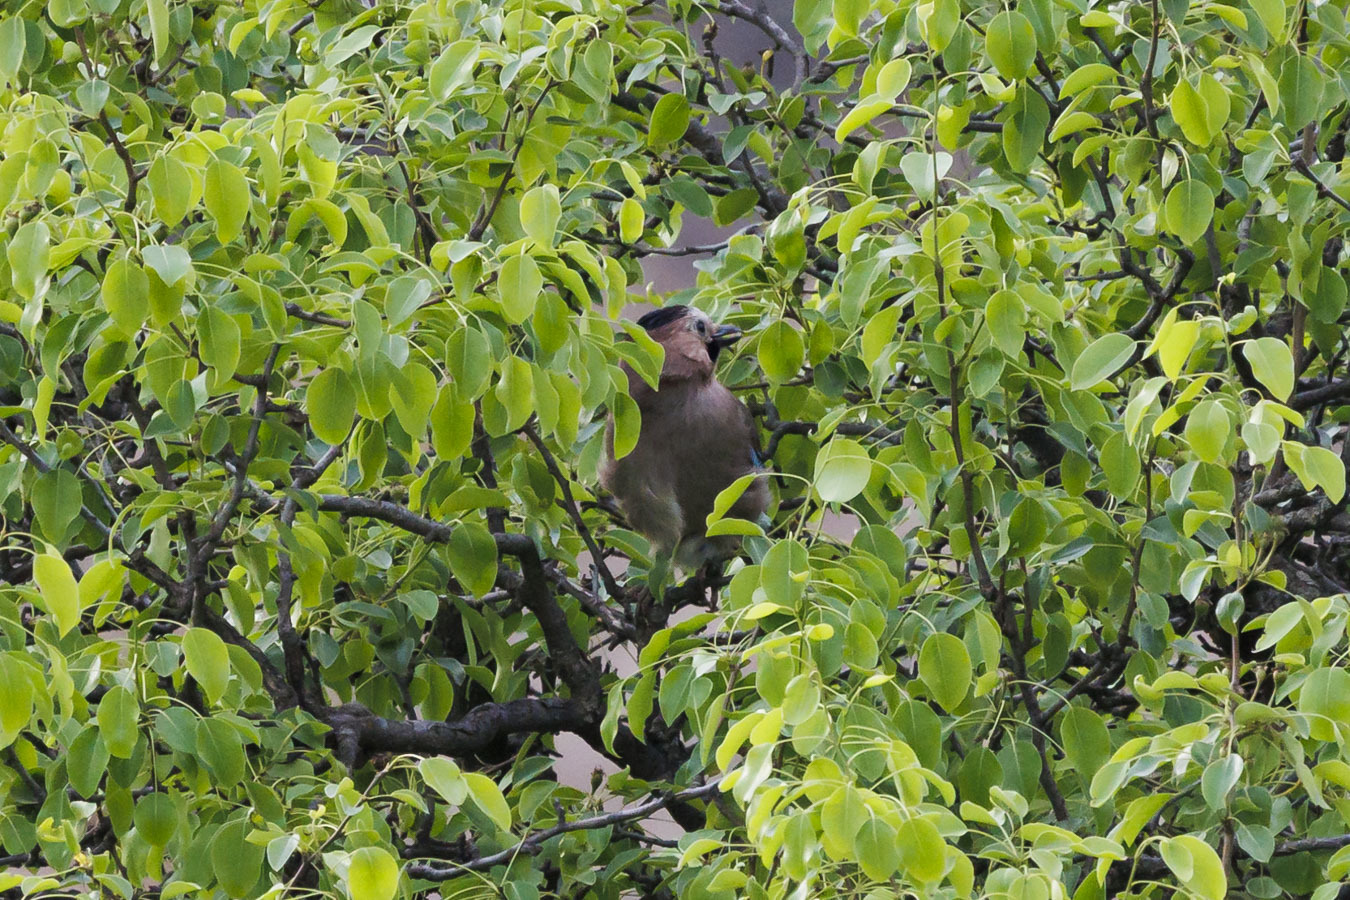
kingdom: Animalia
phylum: Chordata
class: Aves
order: Passeriformes
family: Corvidae
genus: Garrulus
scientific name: Garrulus glandarius
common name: Eurasian jay
